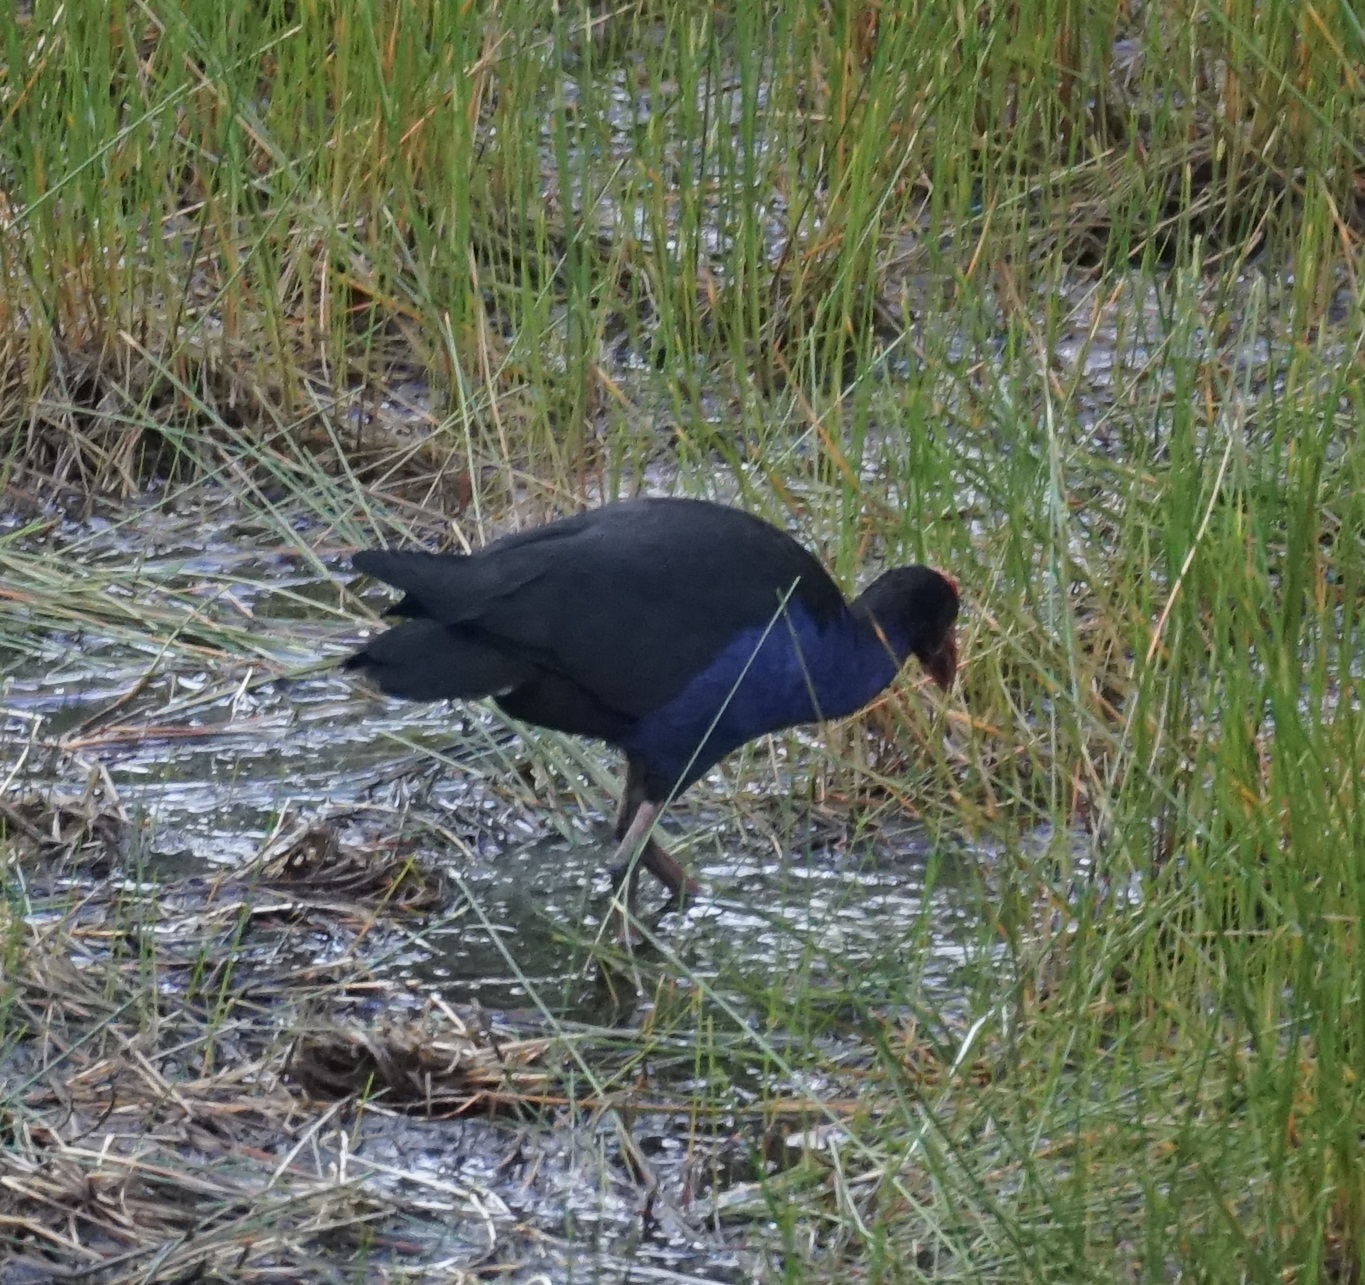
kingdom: Animalia
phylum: Chordata
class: Aves
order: Gruiformes
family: Rallidae
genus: Porphyrio
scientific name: Porphyrio melanotus
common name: Australasian swamphen
